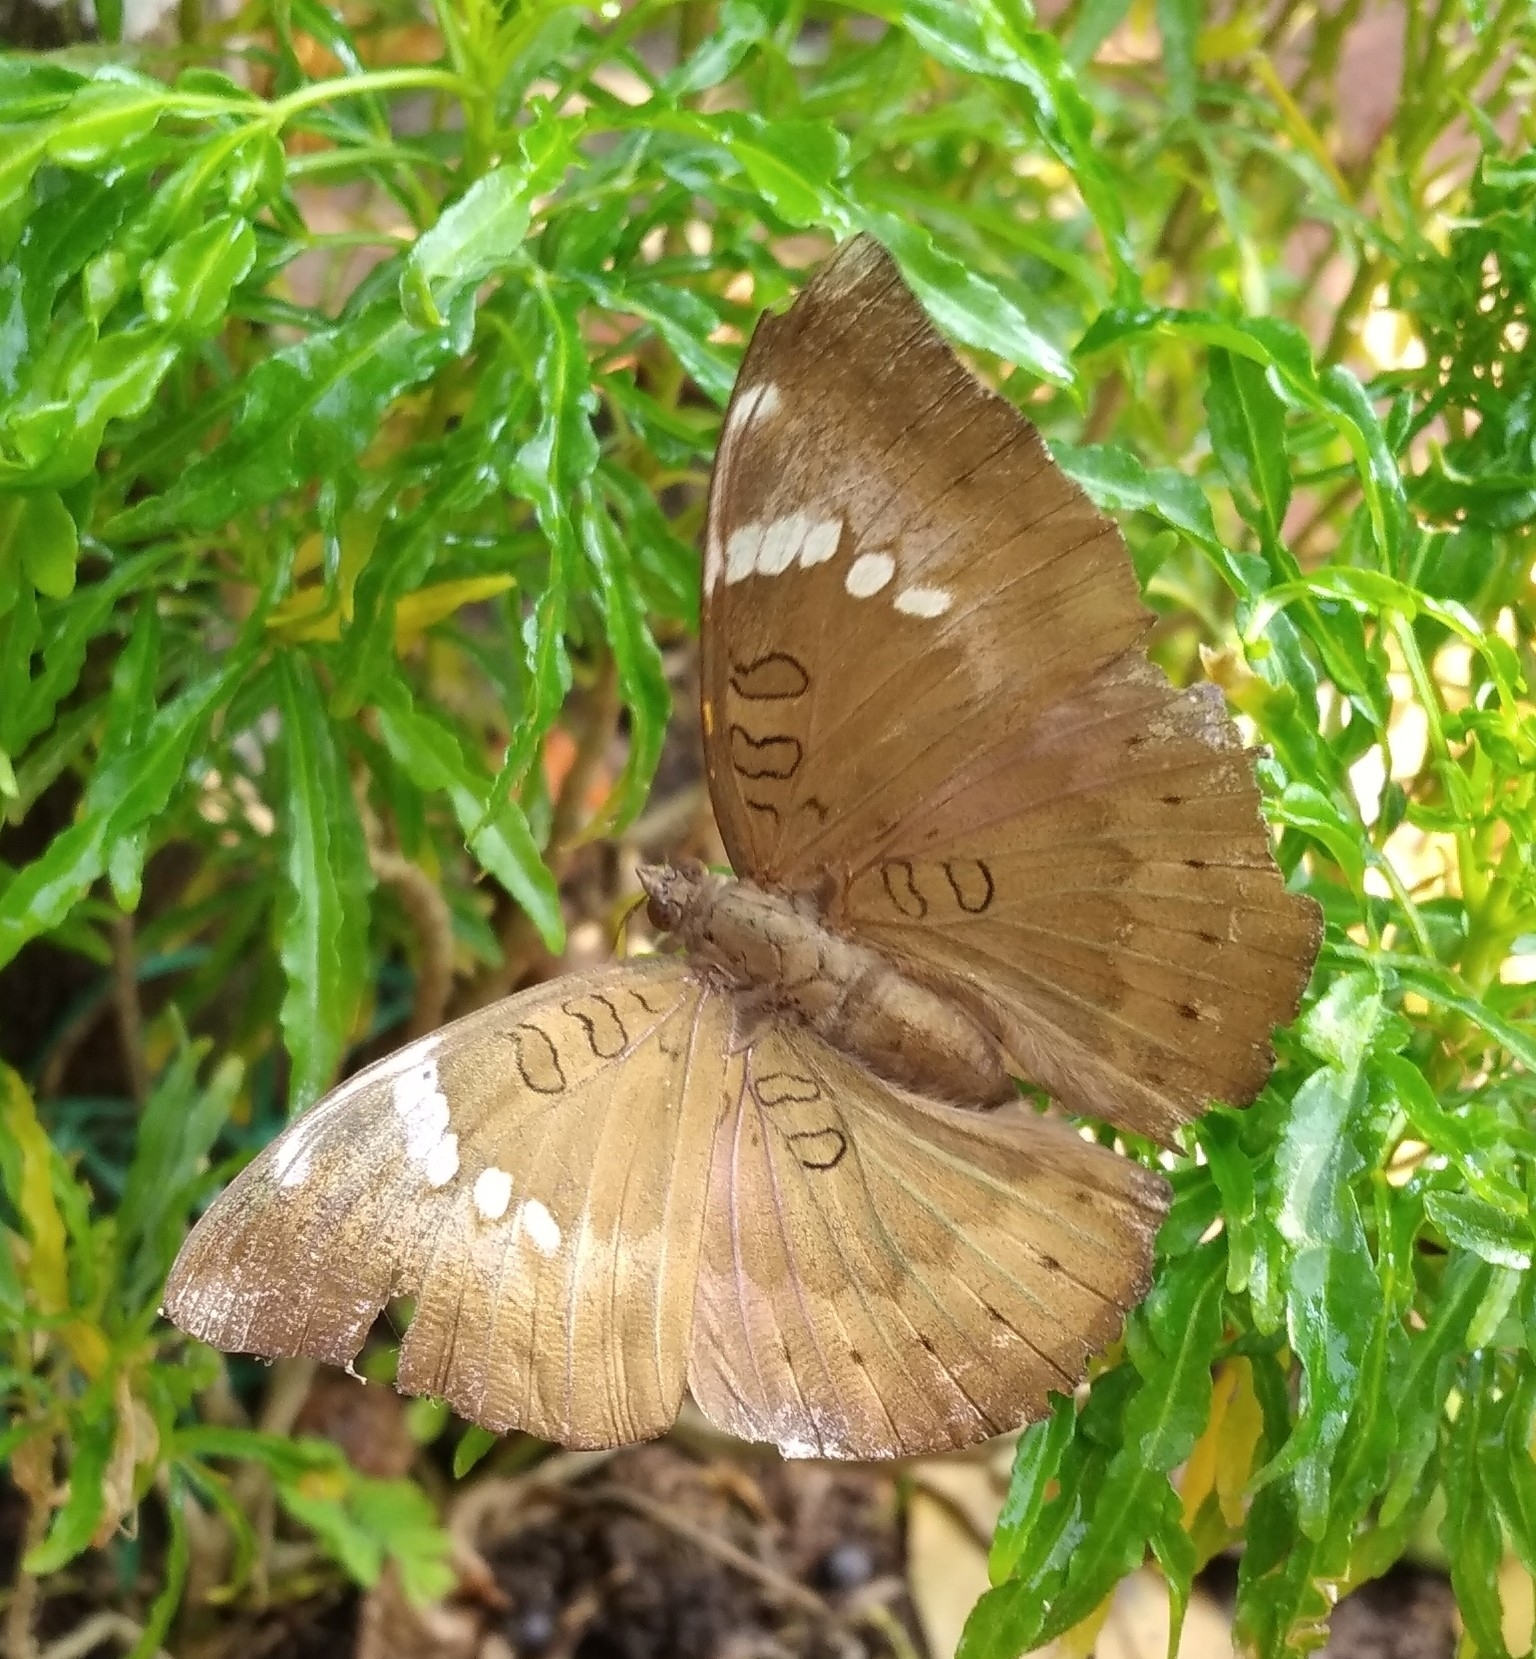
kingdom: Animalia
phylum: Arthropoda
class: Insecta
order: Lepidoptera
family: Nymphalidae
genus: Euthalia
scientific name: Euthalia aconthea
